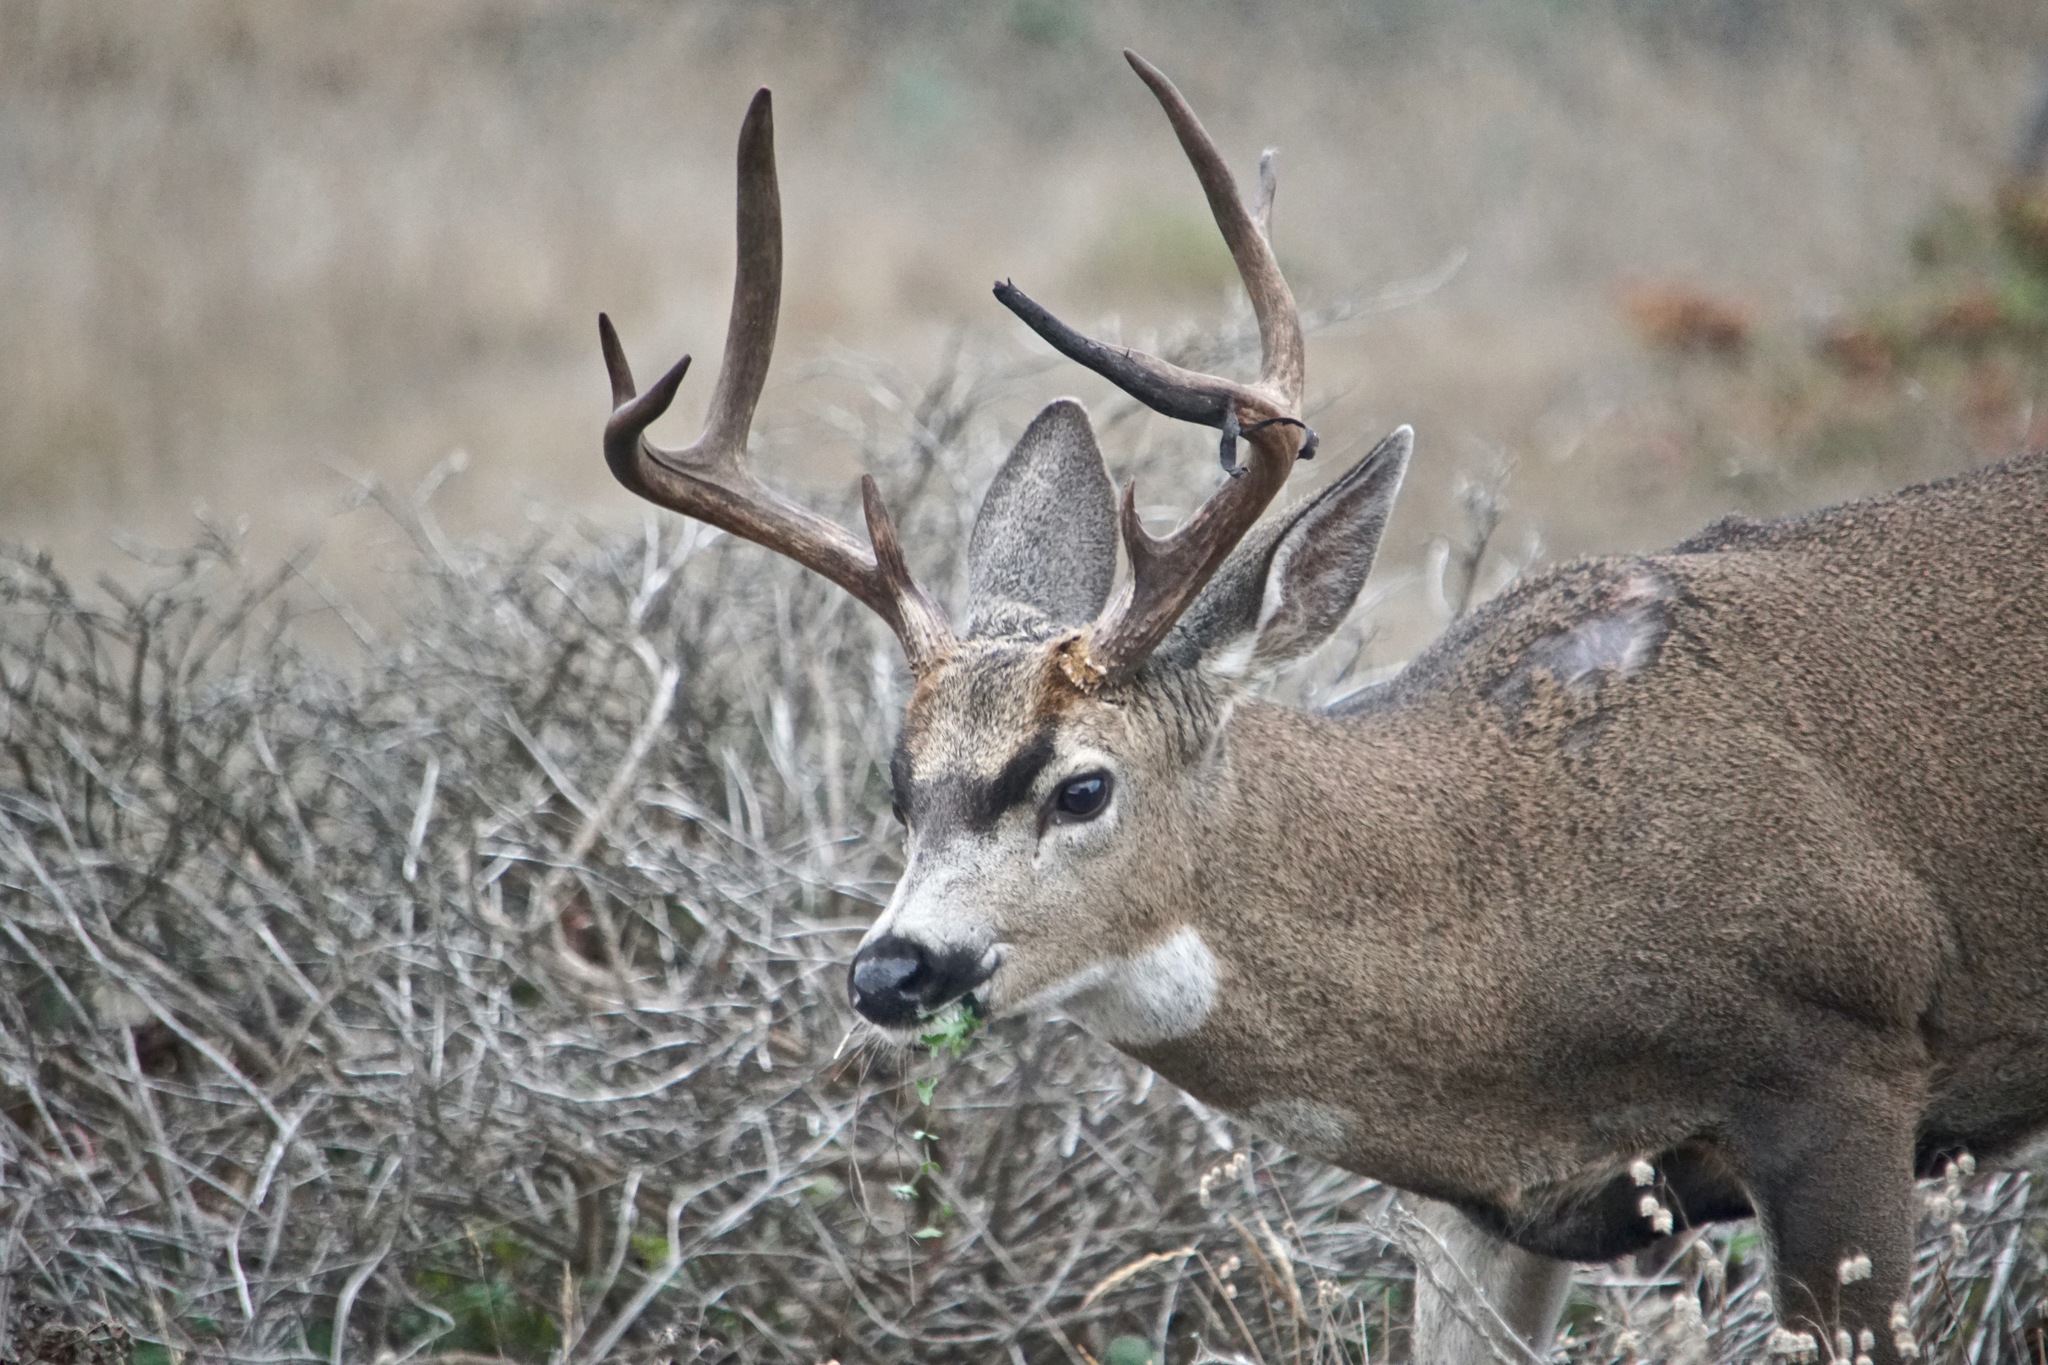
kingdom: Animalia
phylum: Chordata
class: Mammalia
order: Artiodactyla
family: Cervidae
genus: Odocoileus
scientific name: Odocoileus hemionus
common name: Mule deer
